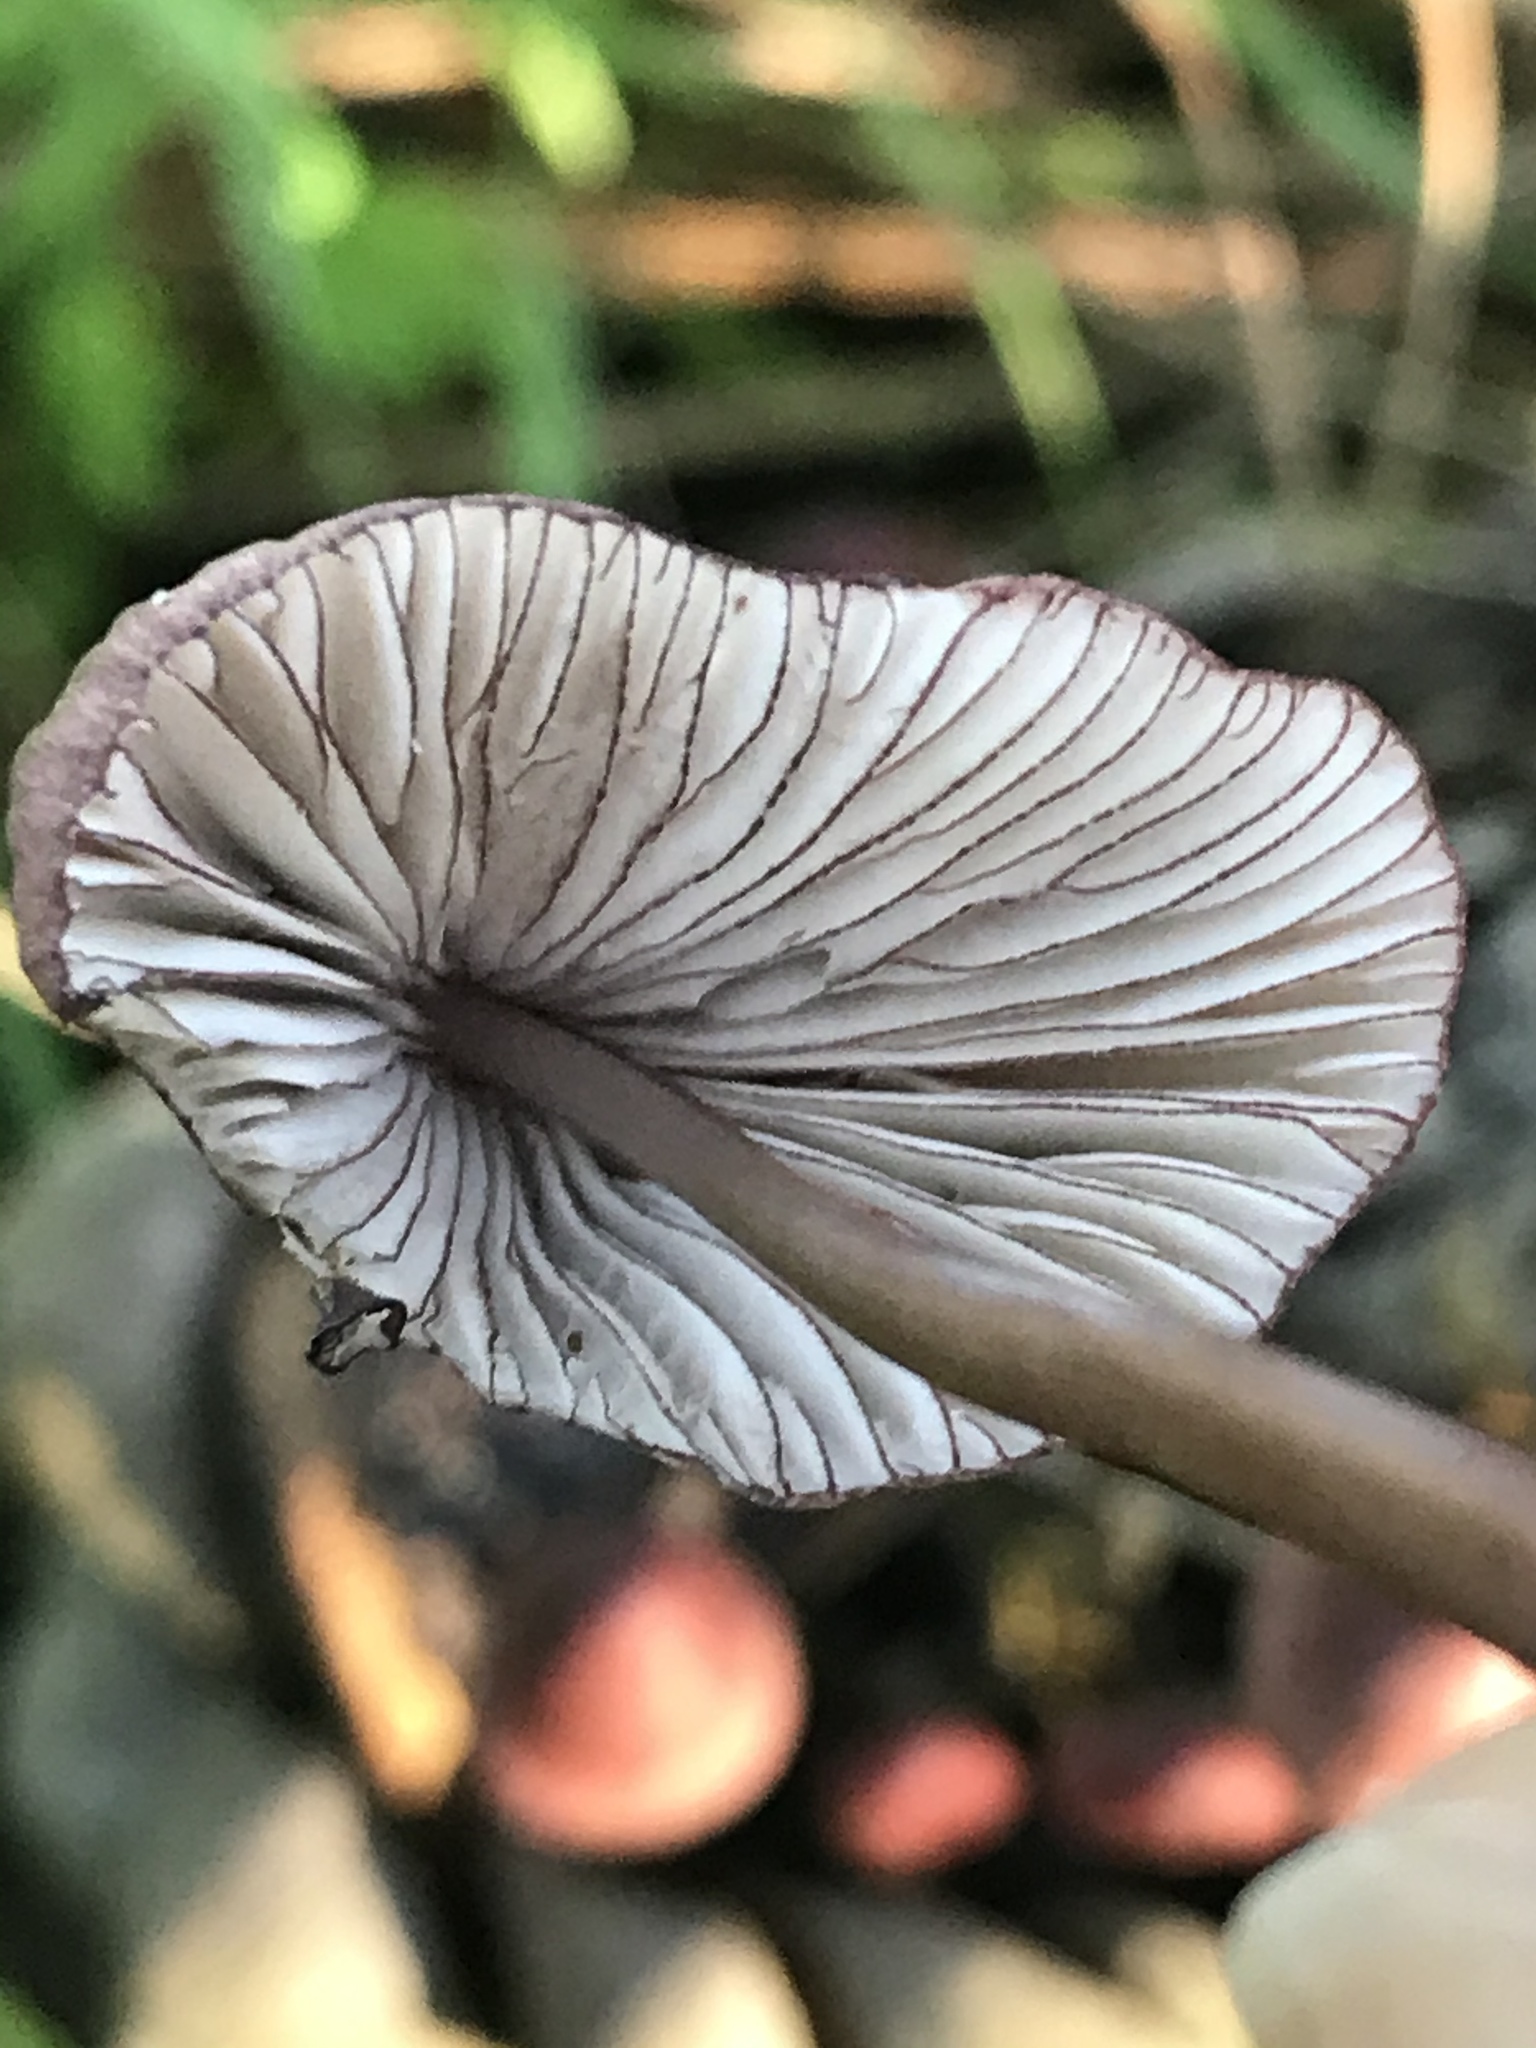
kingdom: Fungi
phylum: Basidiomycota
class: Agaricomycetes
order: Agaricales
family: Mycenaceae
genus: Mycena
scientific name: Mycena purpureofusca
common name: Purple edge bonnet
